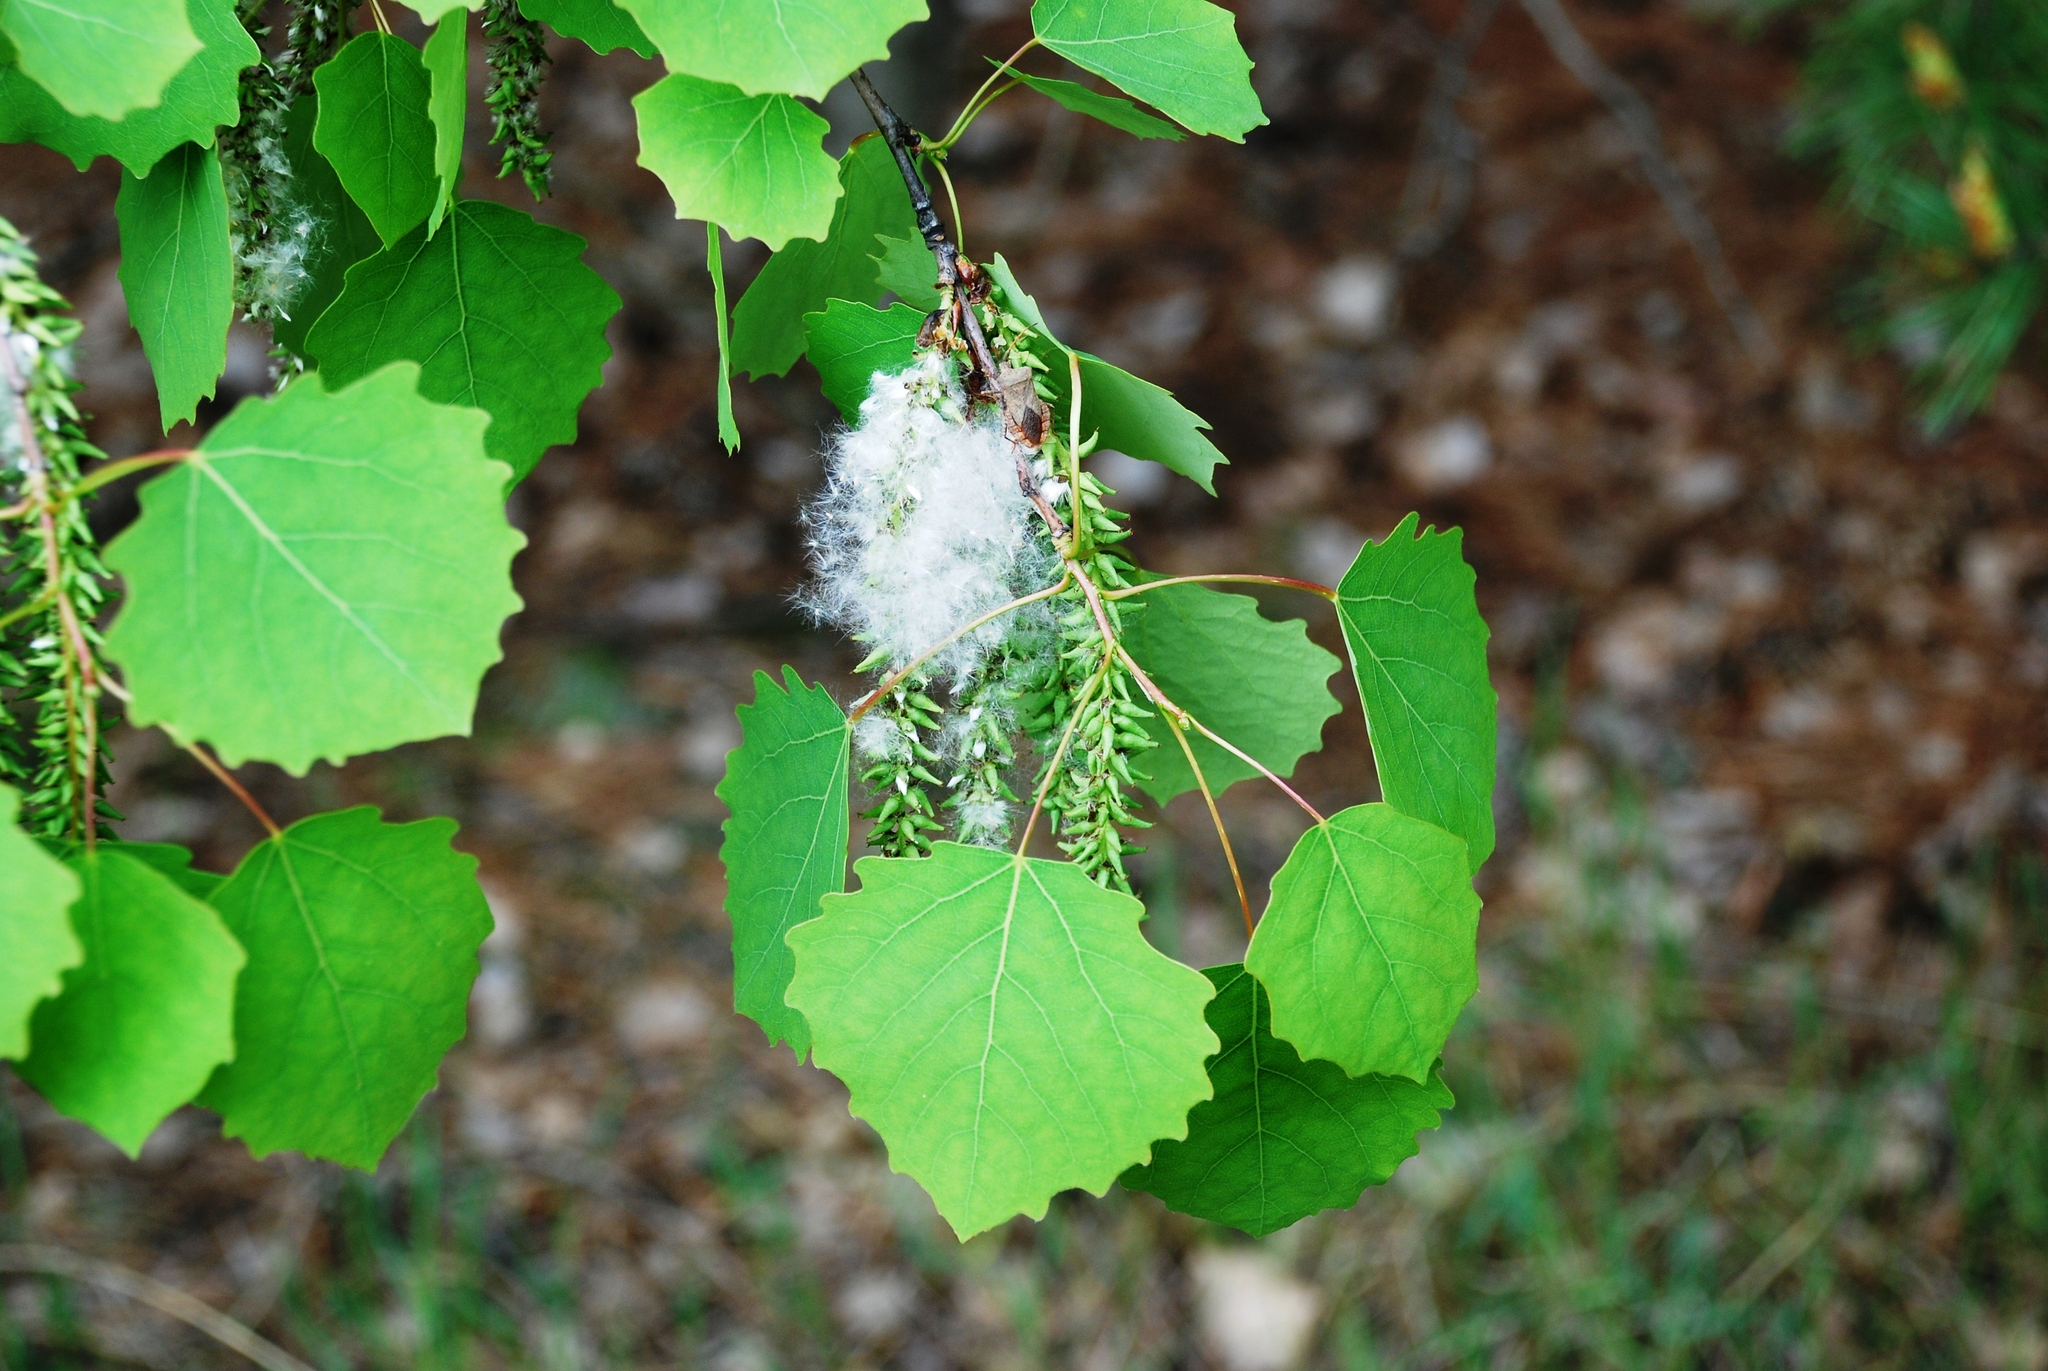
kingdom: Plantae
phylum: Tracheophyta
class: Magnoliopsida
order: Malpighiales
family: Salicaceae
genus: Populus
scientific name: Populus tremula
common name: European aspen
